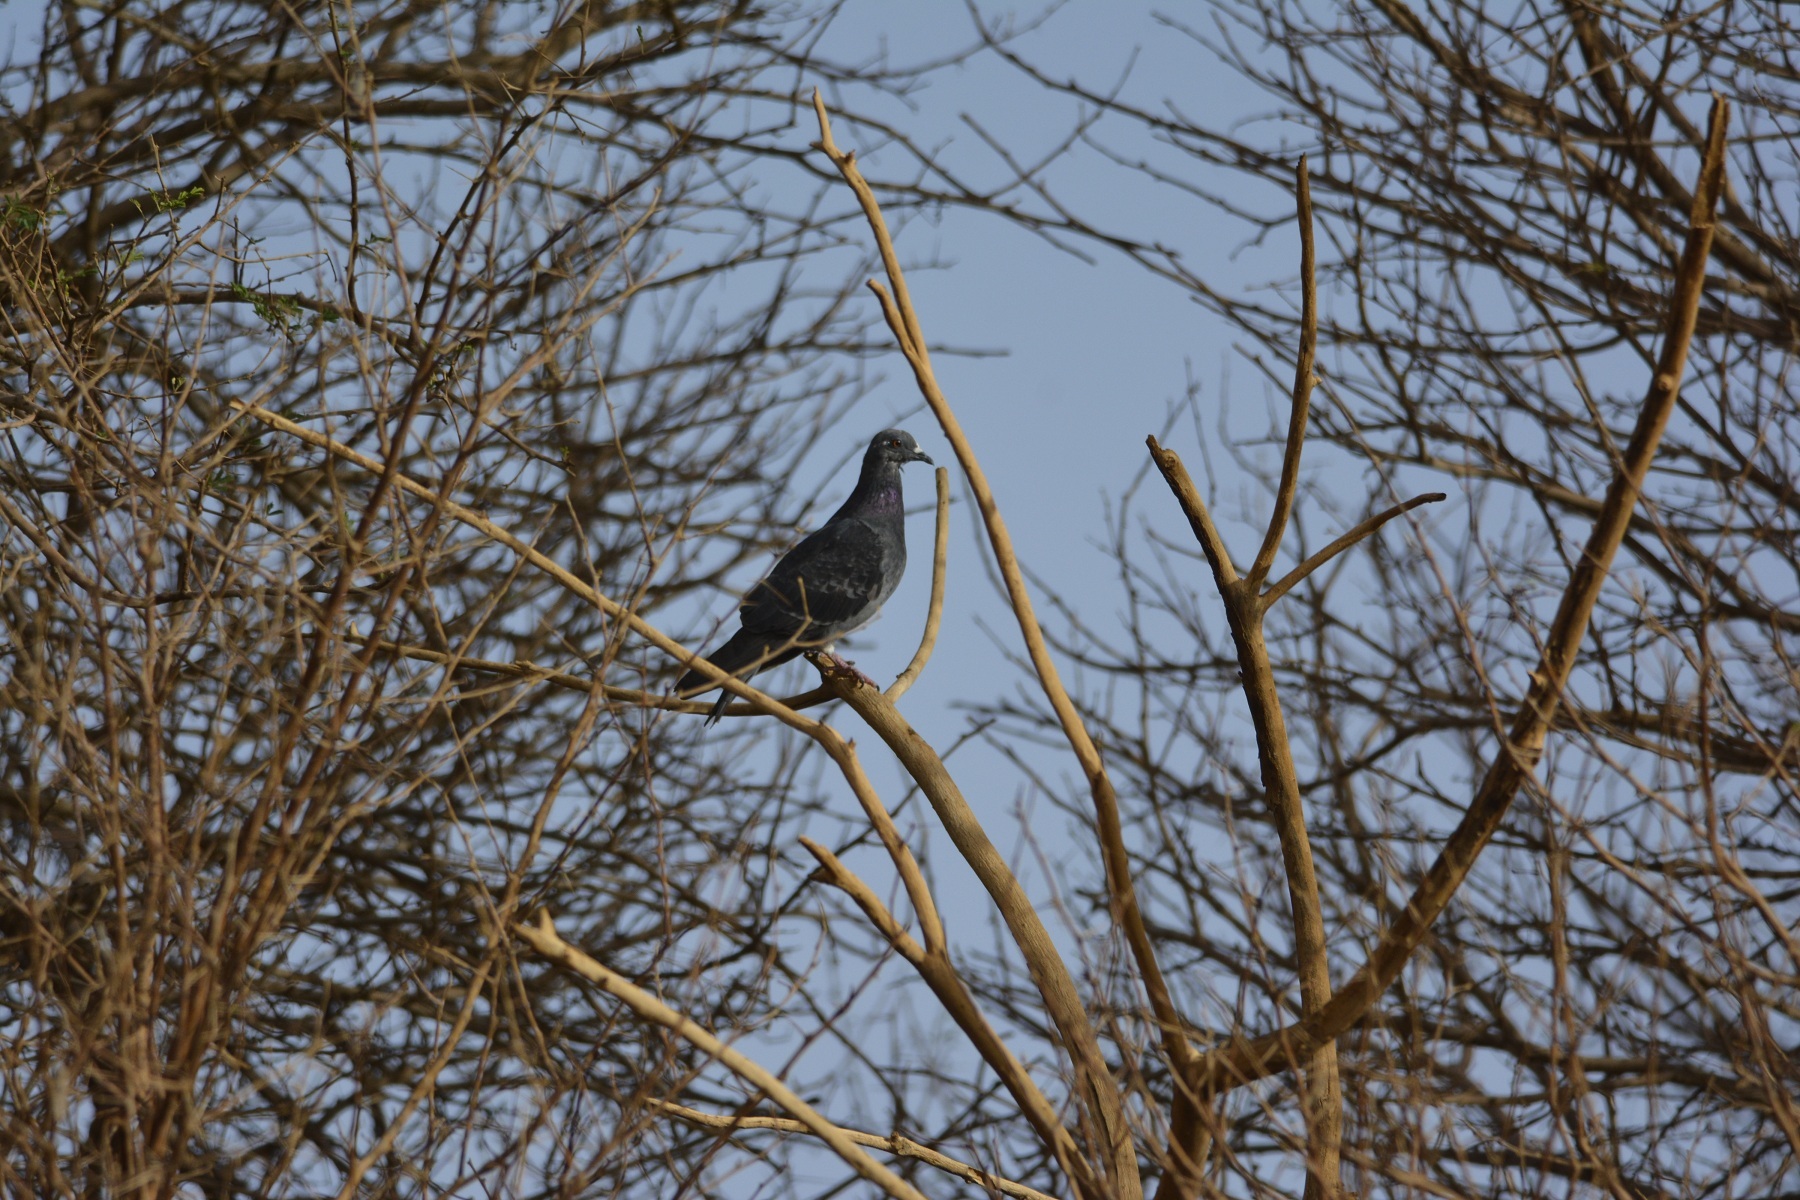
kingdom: Animalia
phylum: Chordata
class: Aves
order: Columbiformes
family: Columbidae
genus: Columba
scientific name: Columba livia
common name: Rock pigeon
